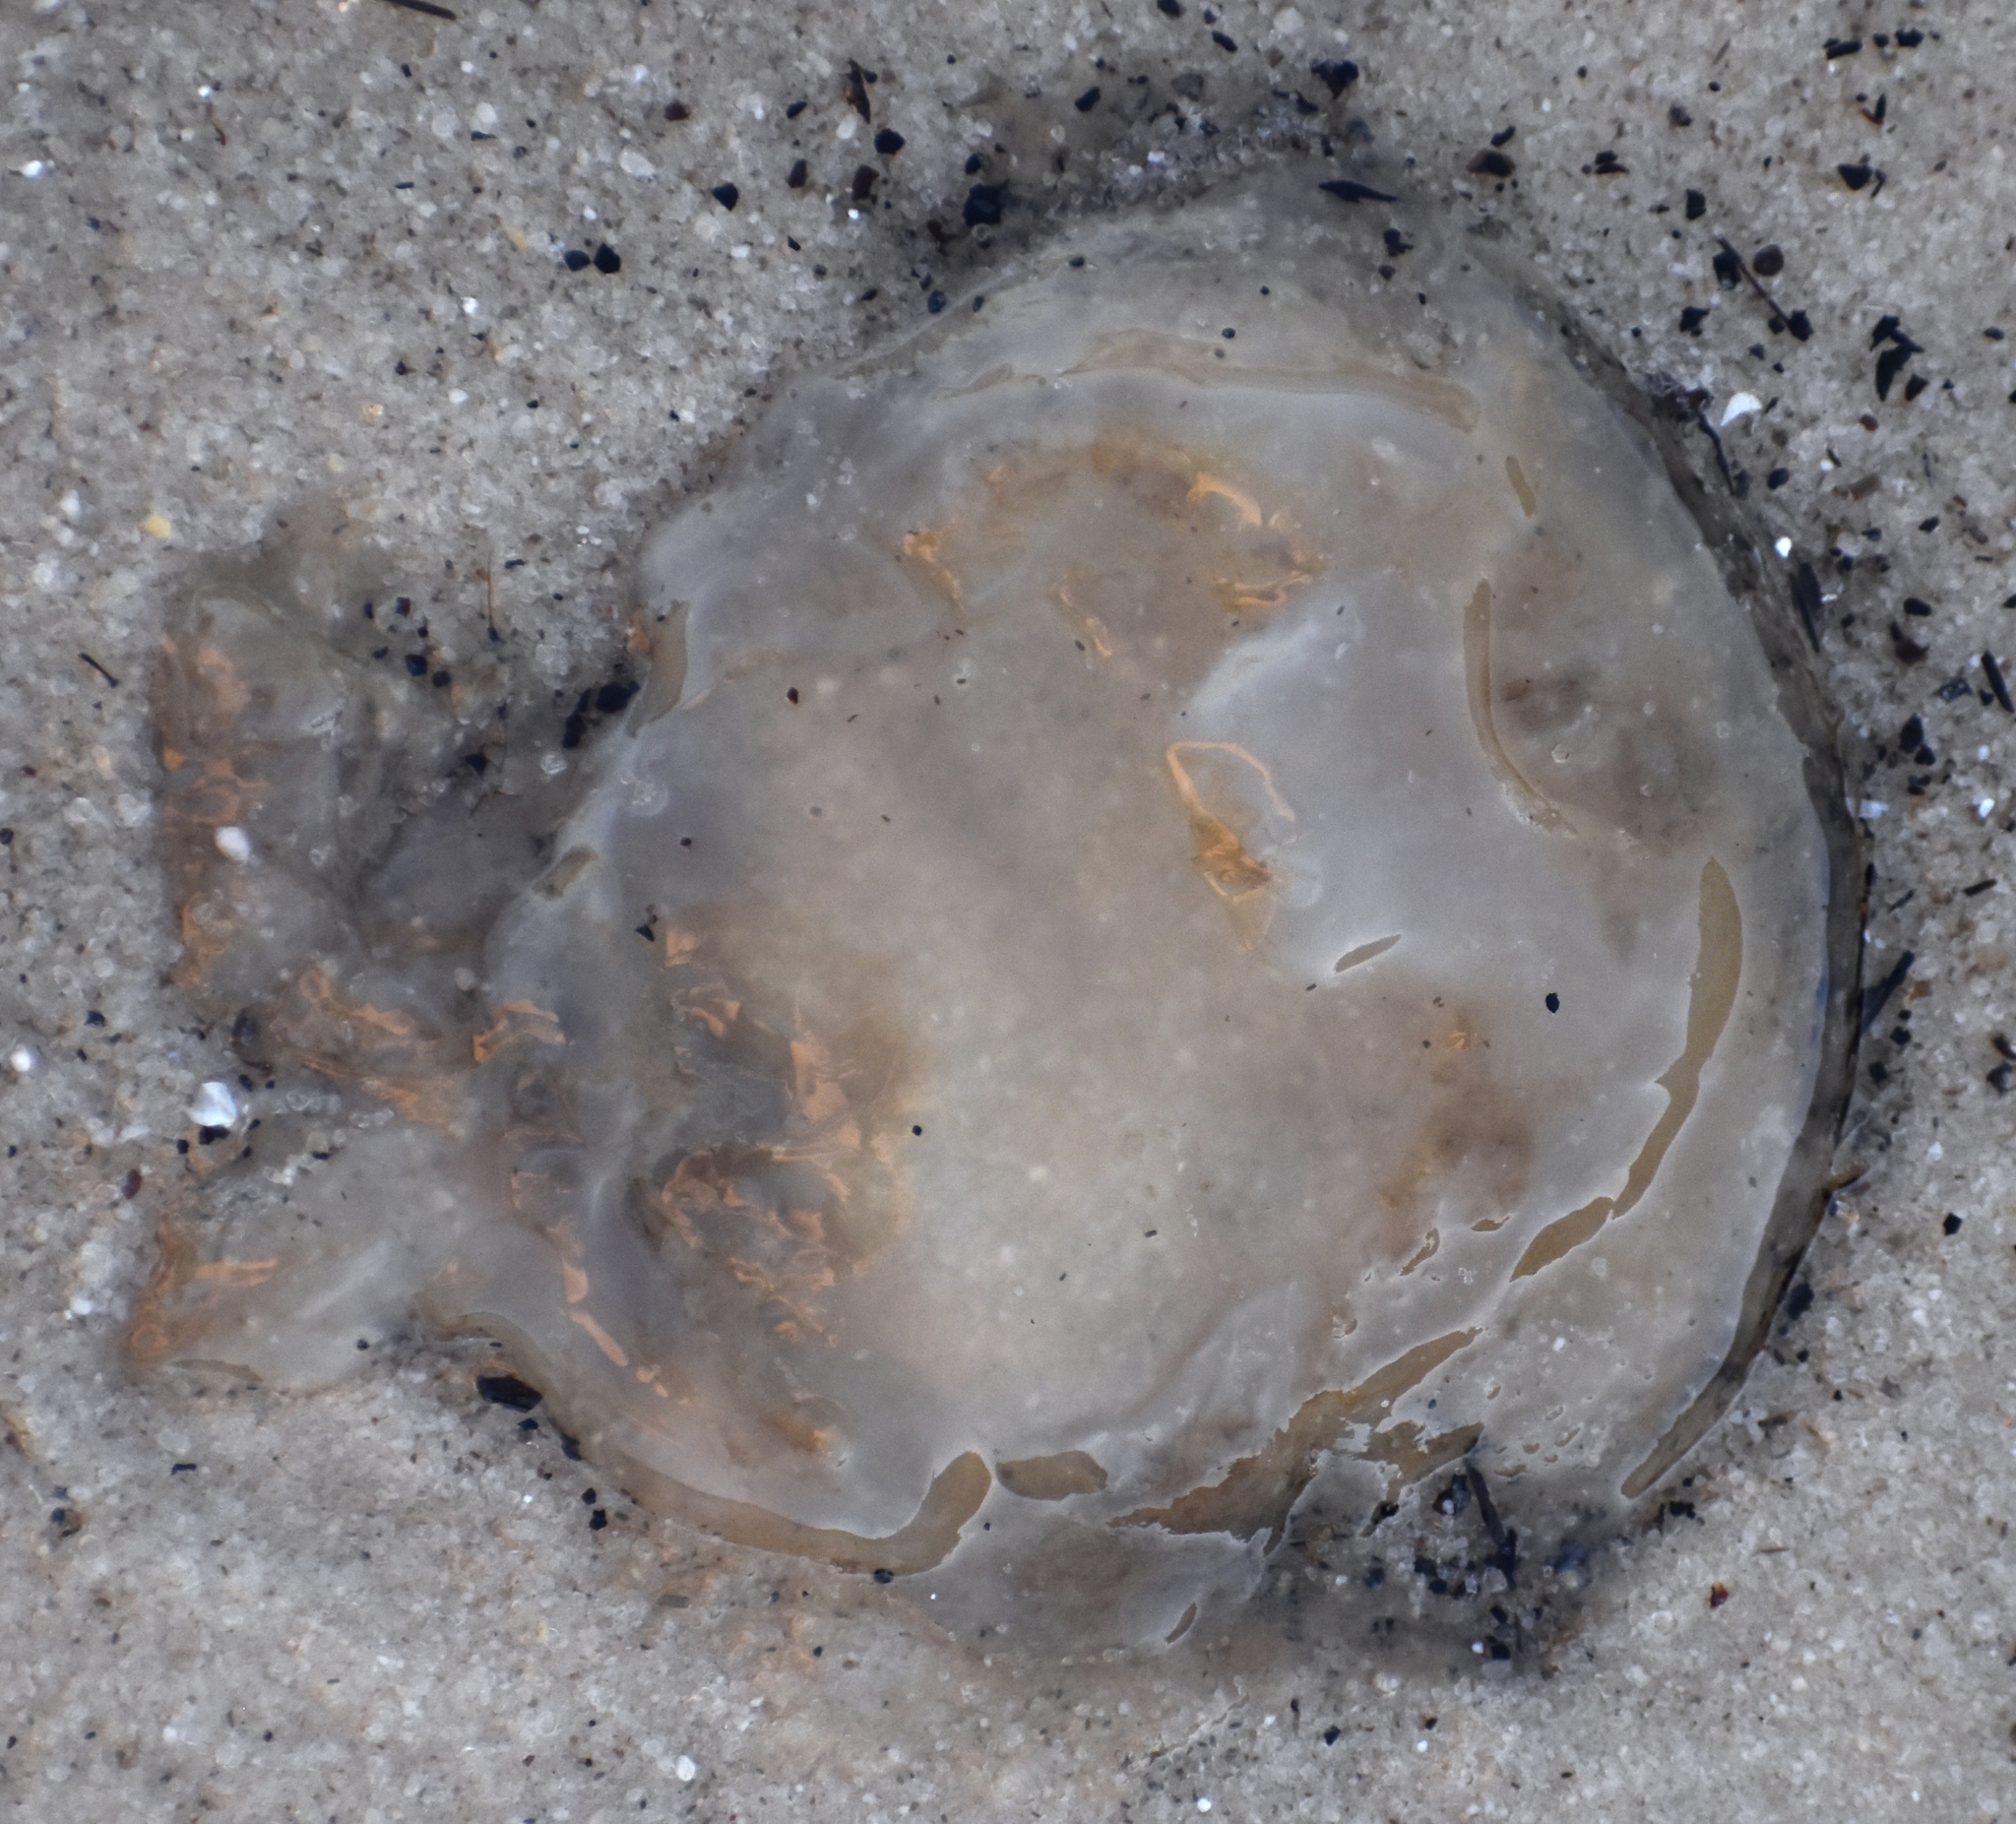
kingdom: Animalia
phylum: Cnidaria
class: Scyphozoa
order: Rhizostomeae
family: Rhizostomatidae
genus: Rhopilema
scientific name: Rhopilema verrilli
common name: Mushroom cap jellyfish
